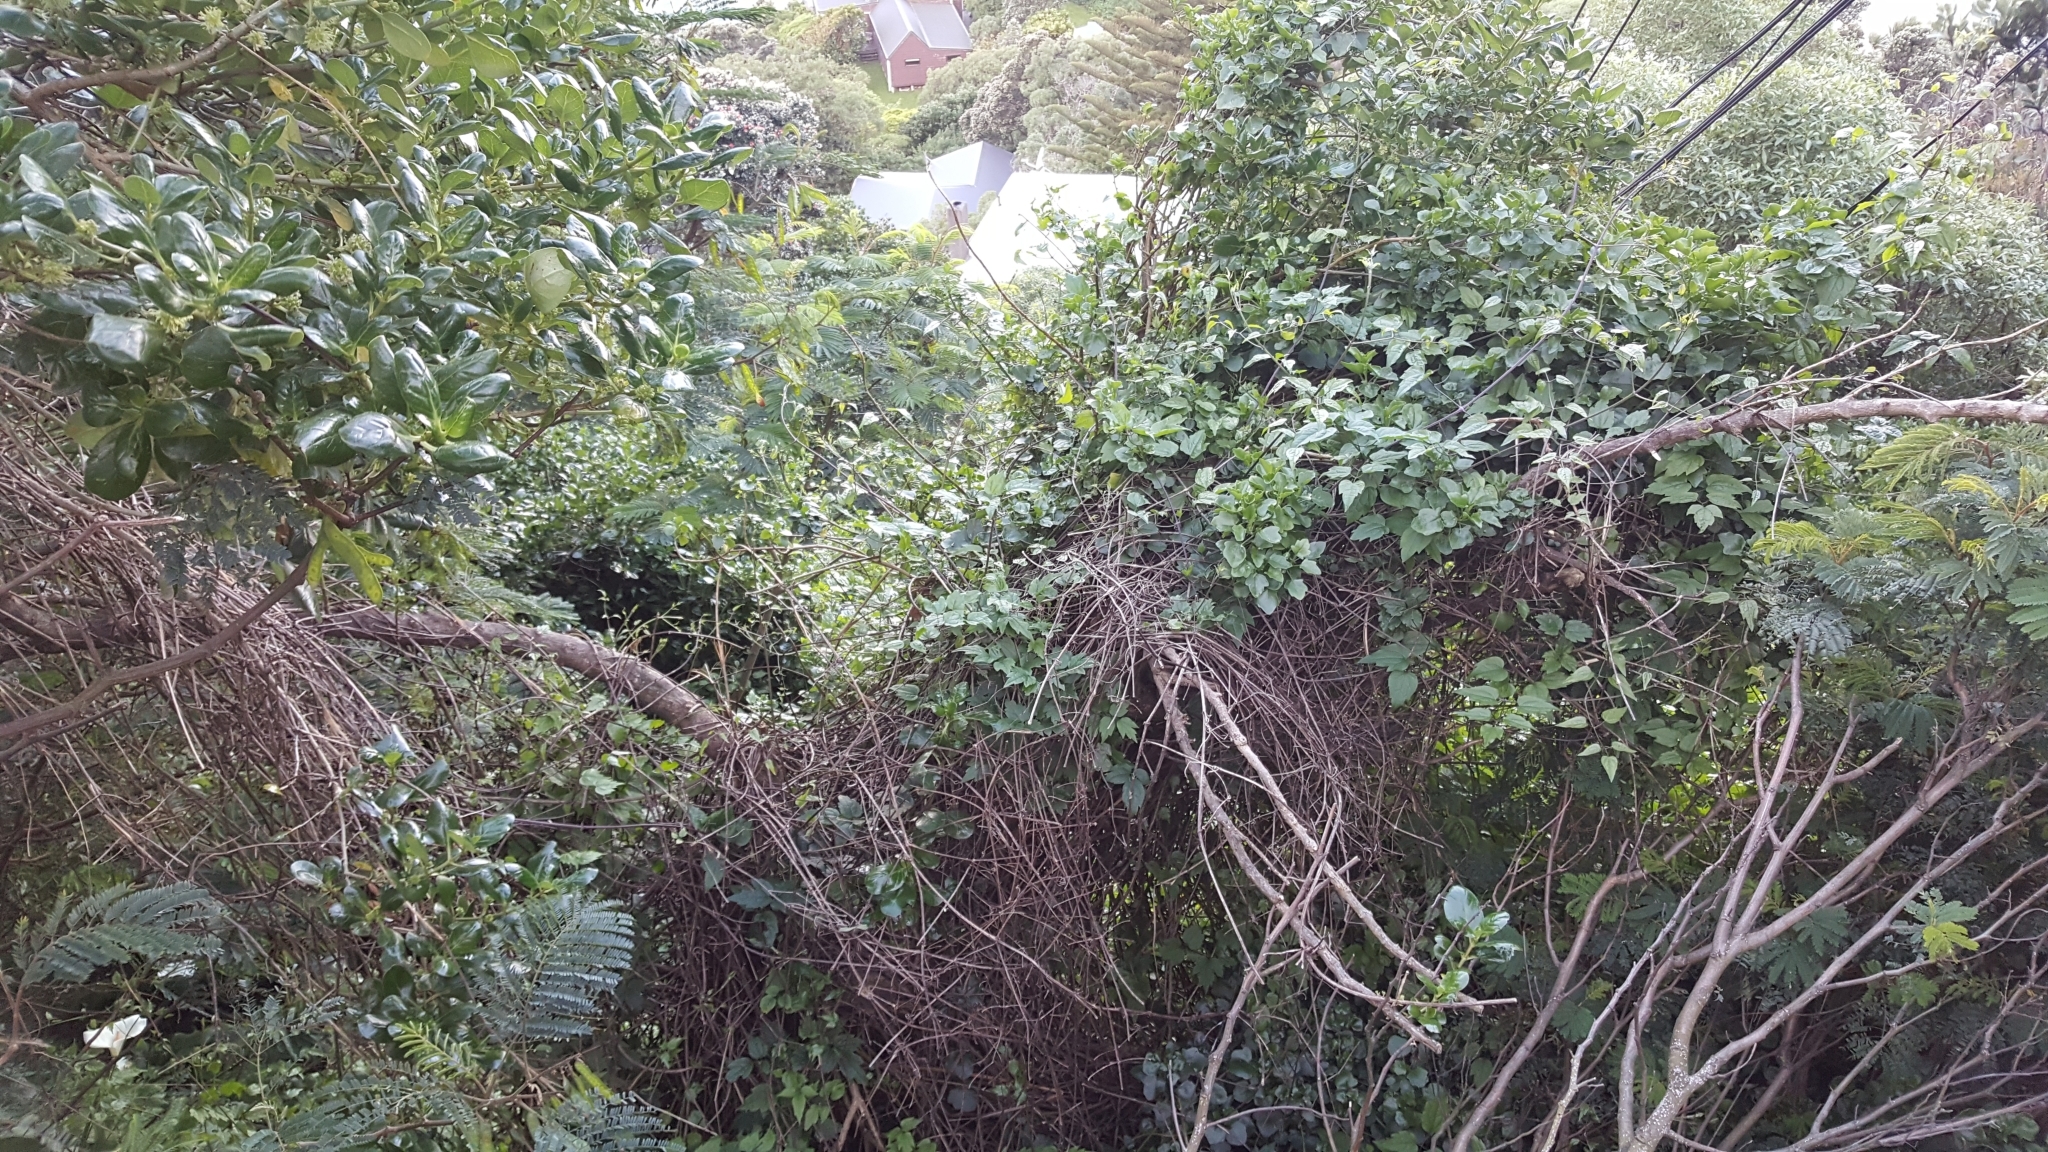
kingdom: Plantae
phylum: Tracheophyta
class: Magnoliopsida
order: Ranunculales
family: Ranunculaceae
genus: Clematis
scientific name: Clematis vitalba
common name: Evergreen clematis
